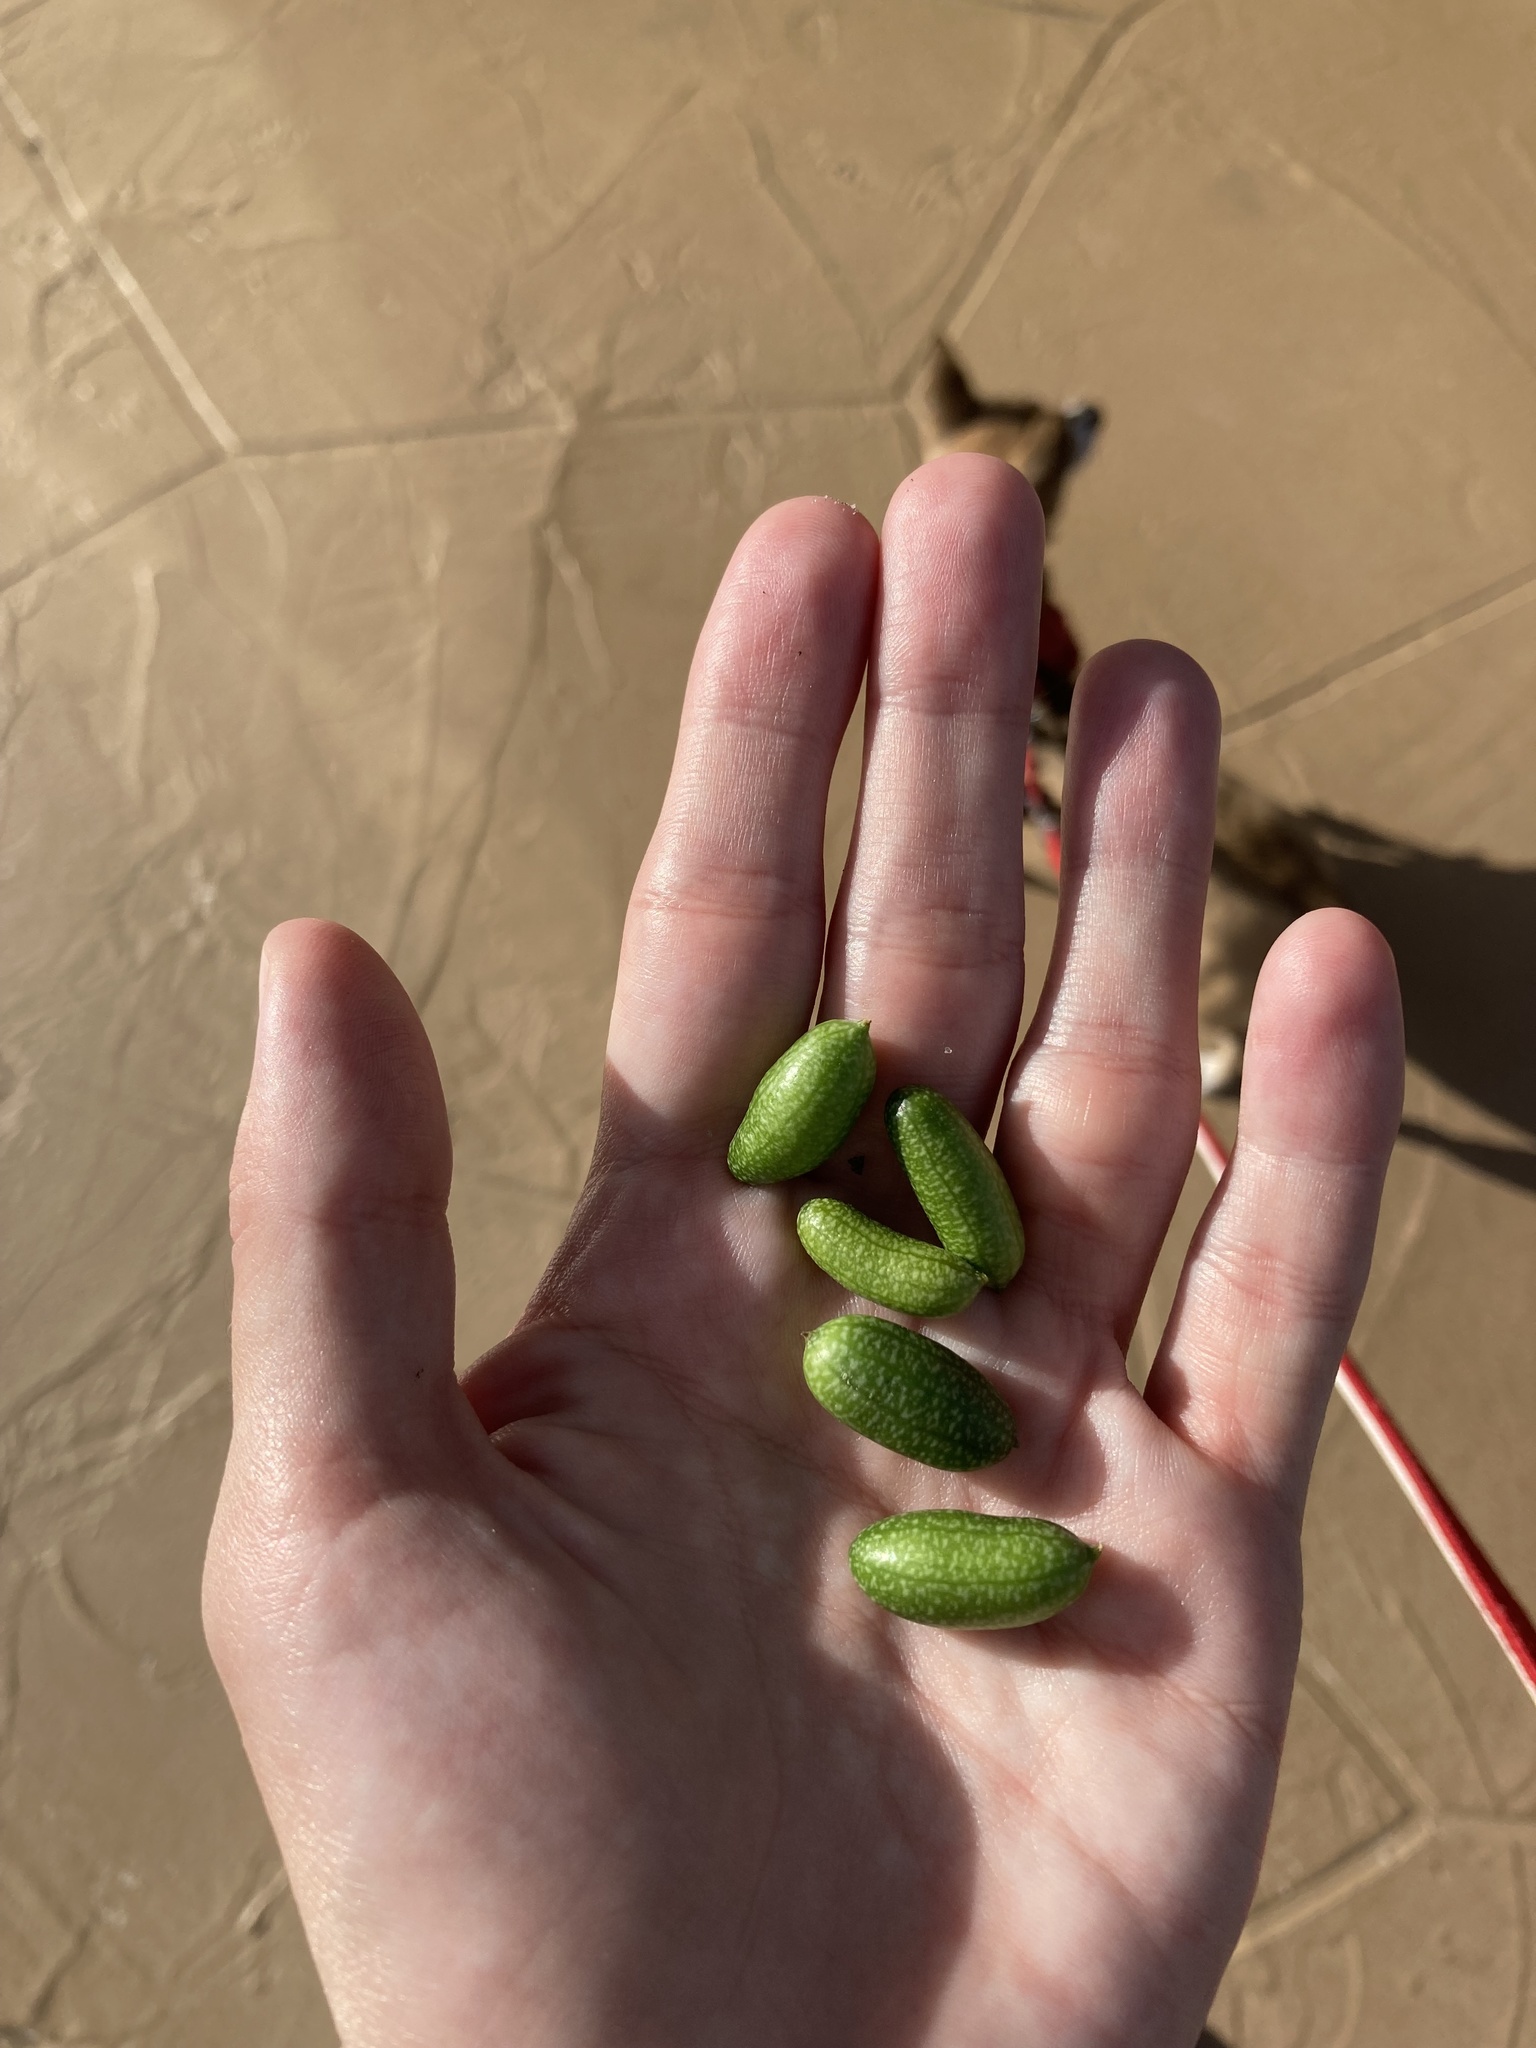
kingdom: Plantae
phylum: Tracheophyta
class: Magnoliopsida
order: Cucurbitales
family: Cucurbitaceae
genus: Melothria
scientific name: Melothria pendula
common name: Creeping-cucumber
